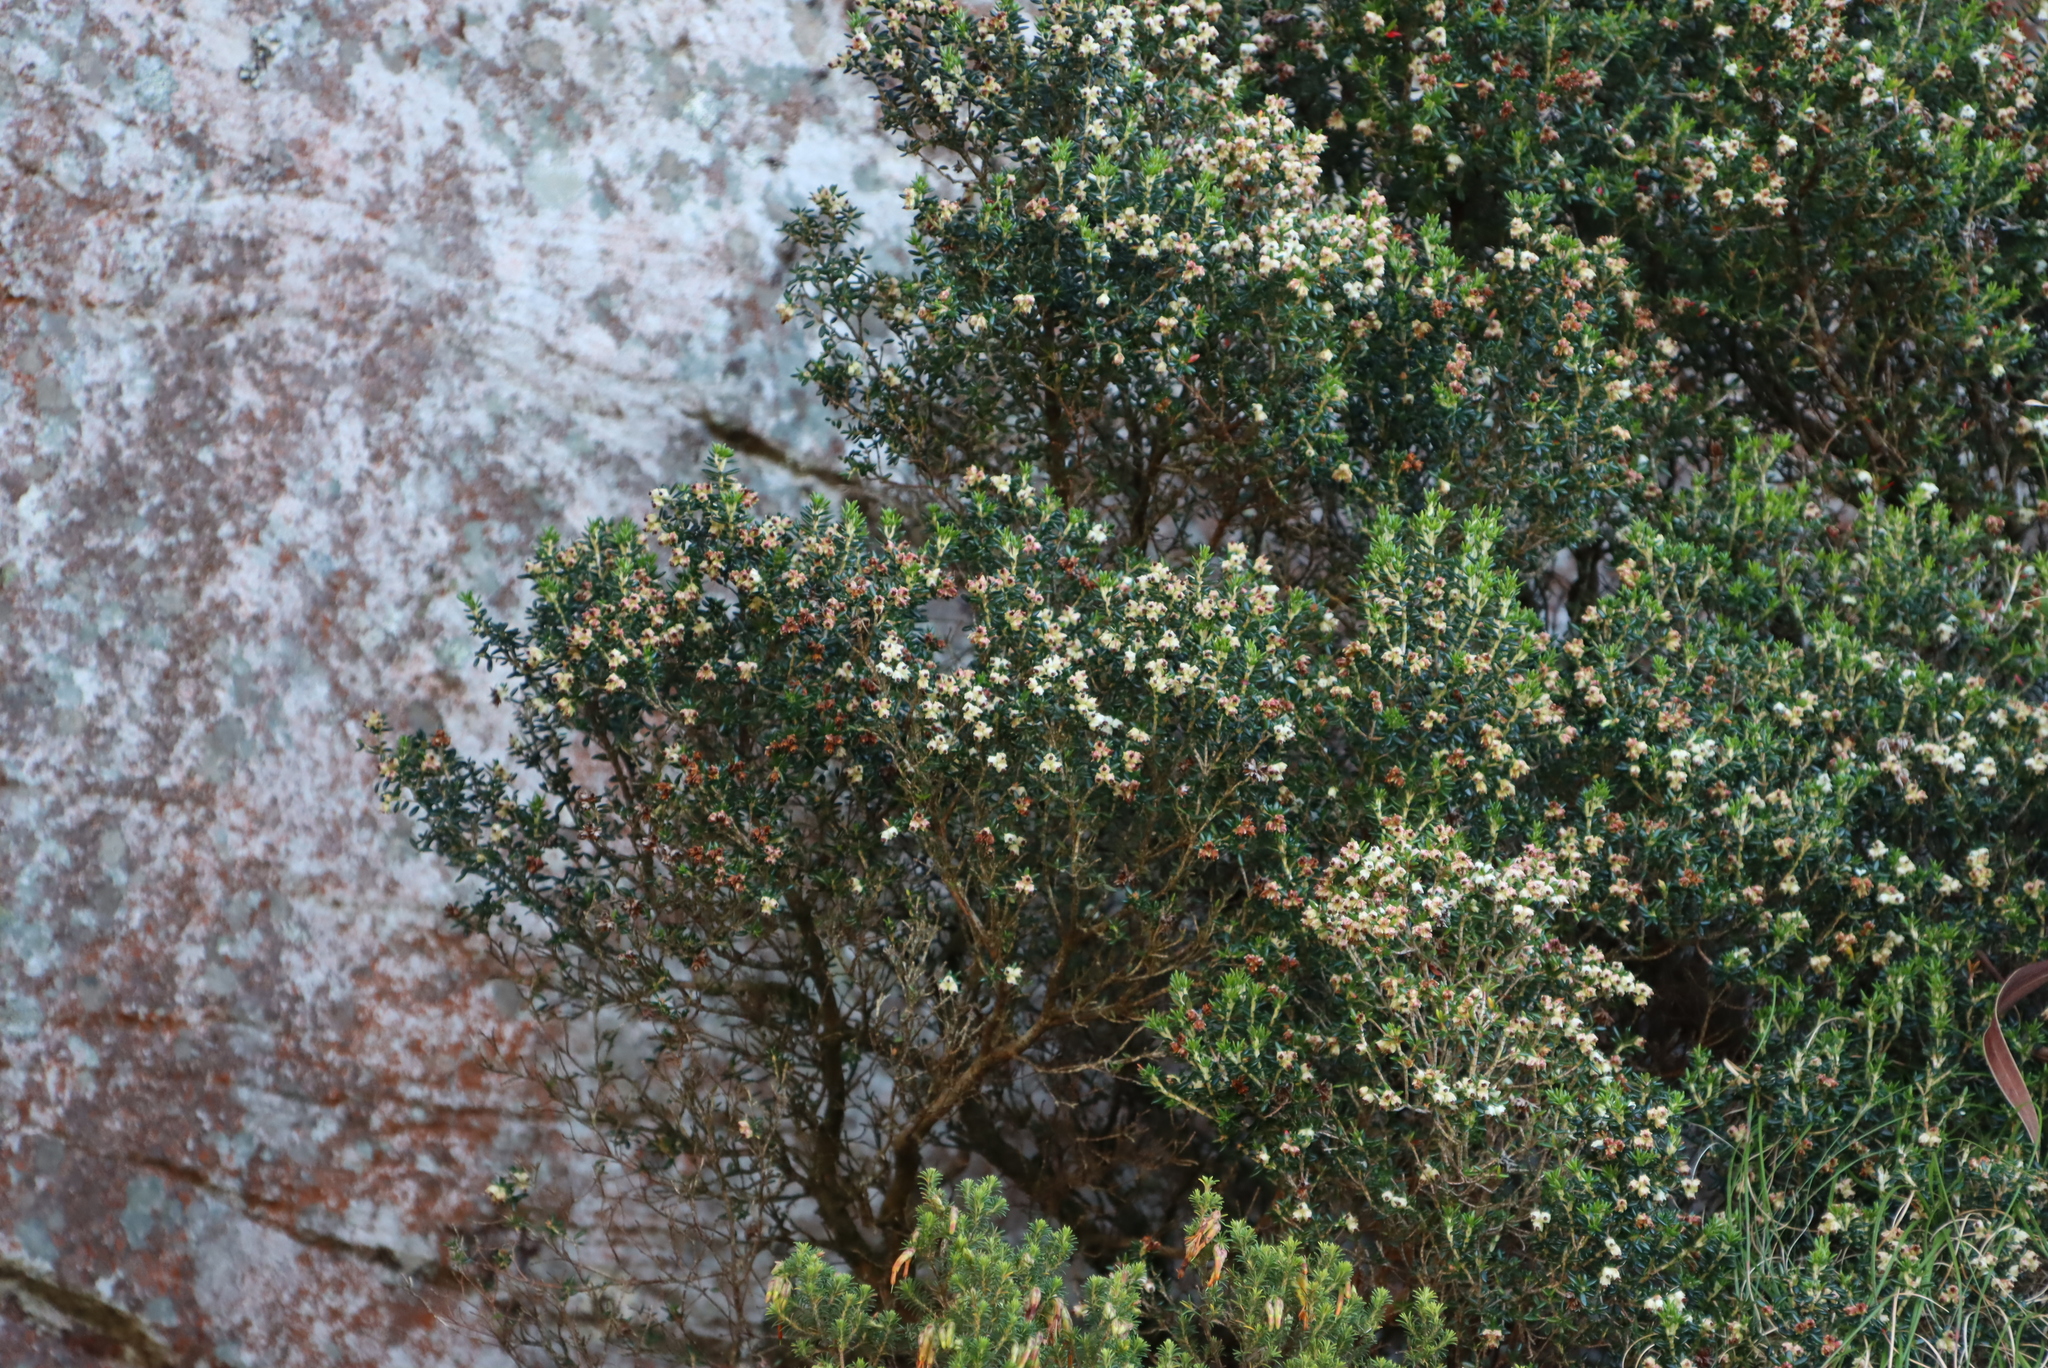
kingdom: Plantae
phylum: Tracheophyta
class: Magnoliopsida
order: Ericales
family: Ericaceae
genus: Erica
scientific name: Erica petiolaris
